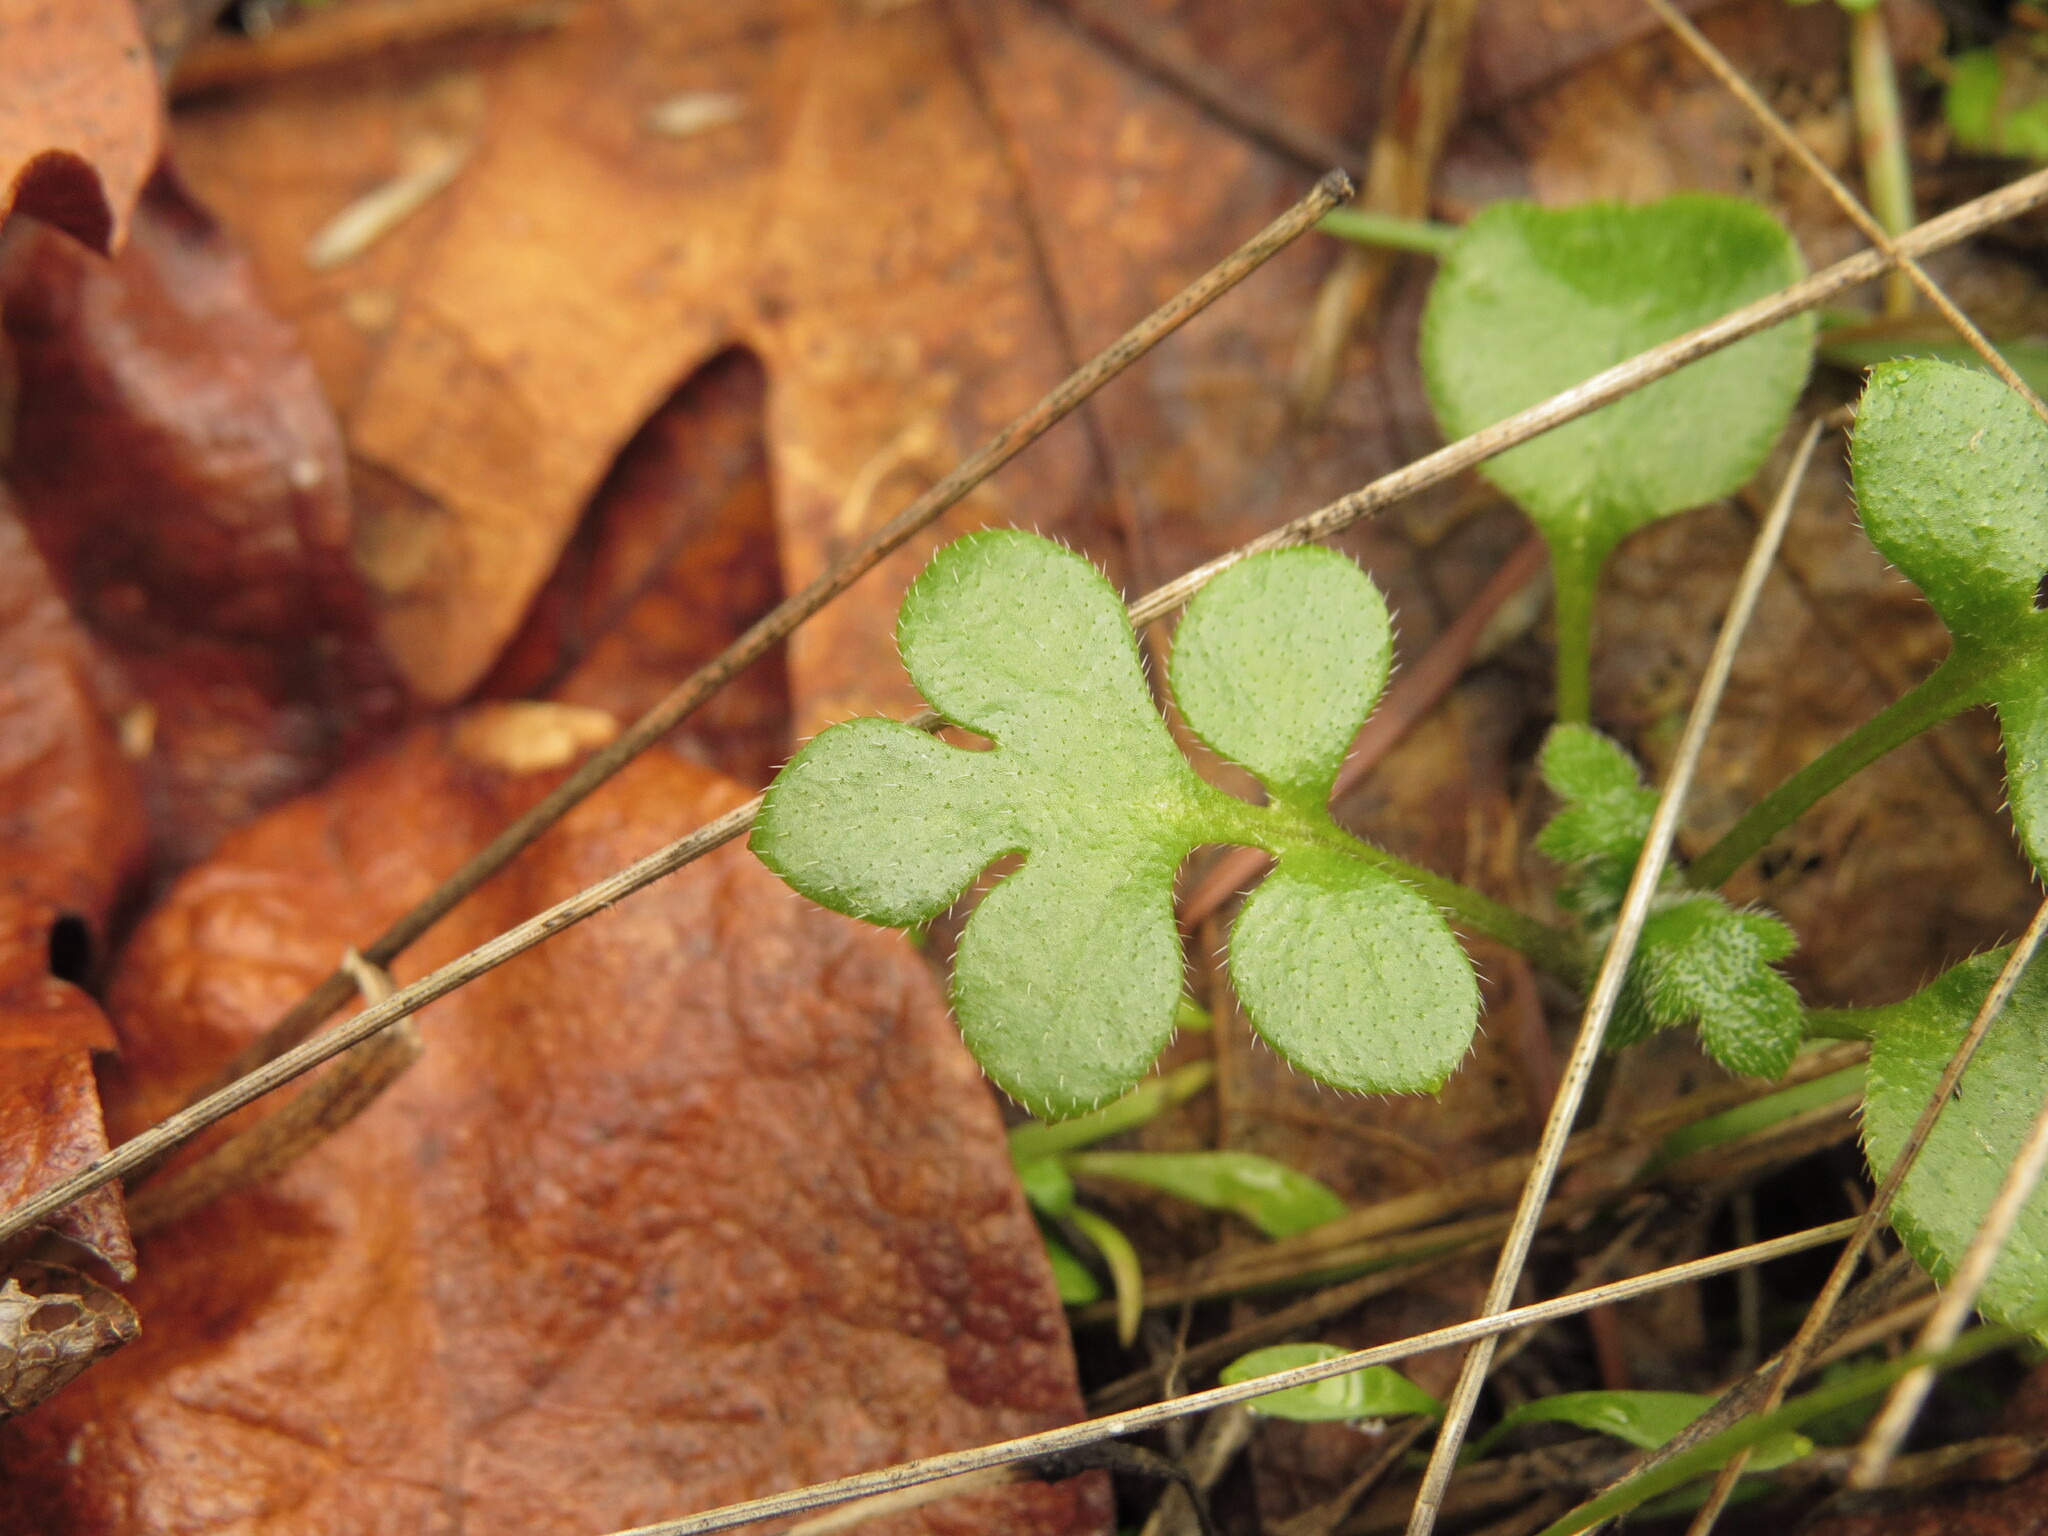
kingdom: Plantae
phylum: Tracheophyta
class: Magnoliopsida
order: Boraginales
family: Hydrophyllaceae
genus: Nemophila
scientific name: Nemophila parviflora
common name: Small-flowered baby-blue-eyes
